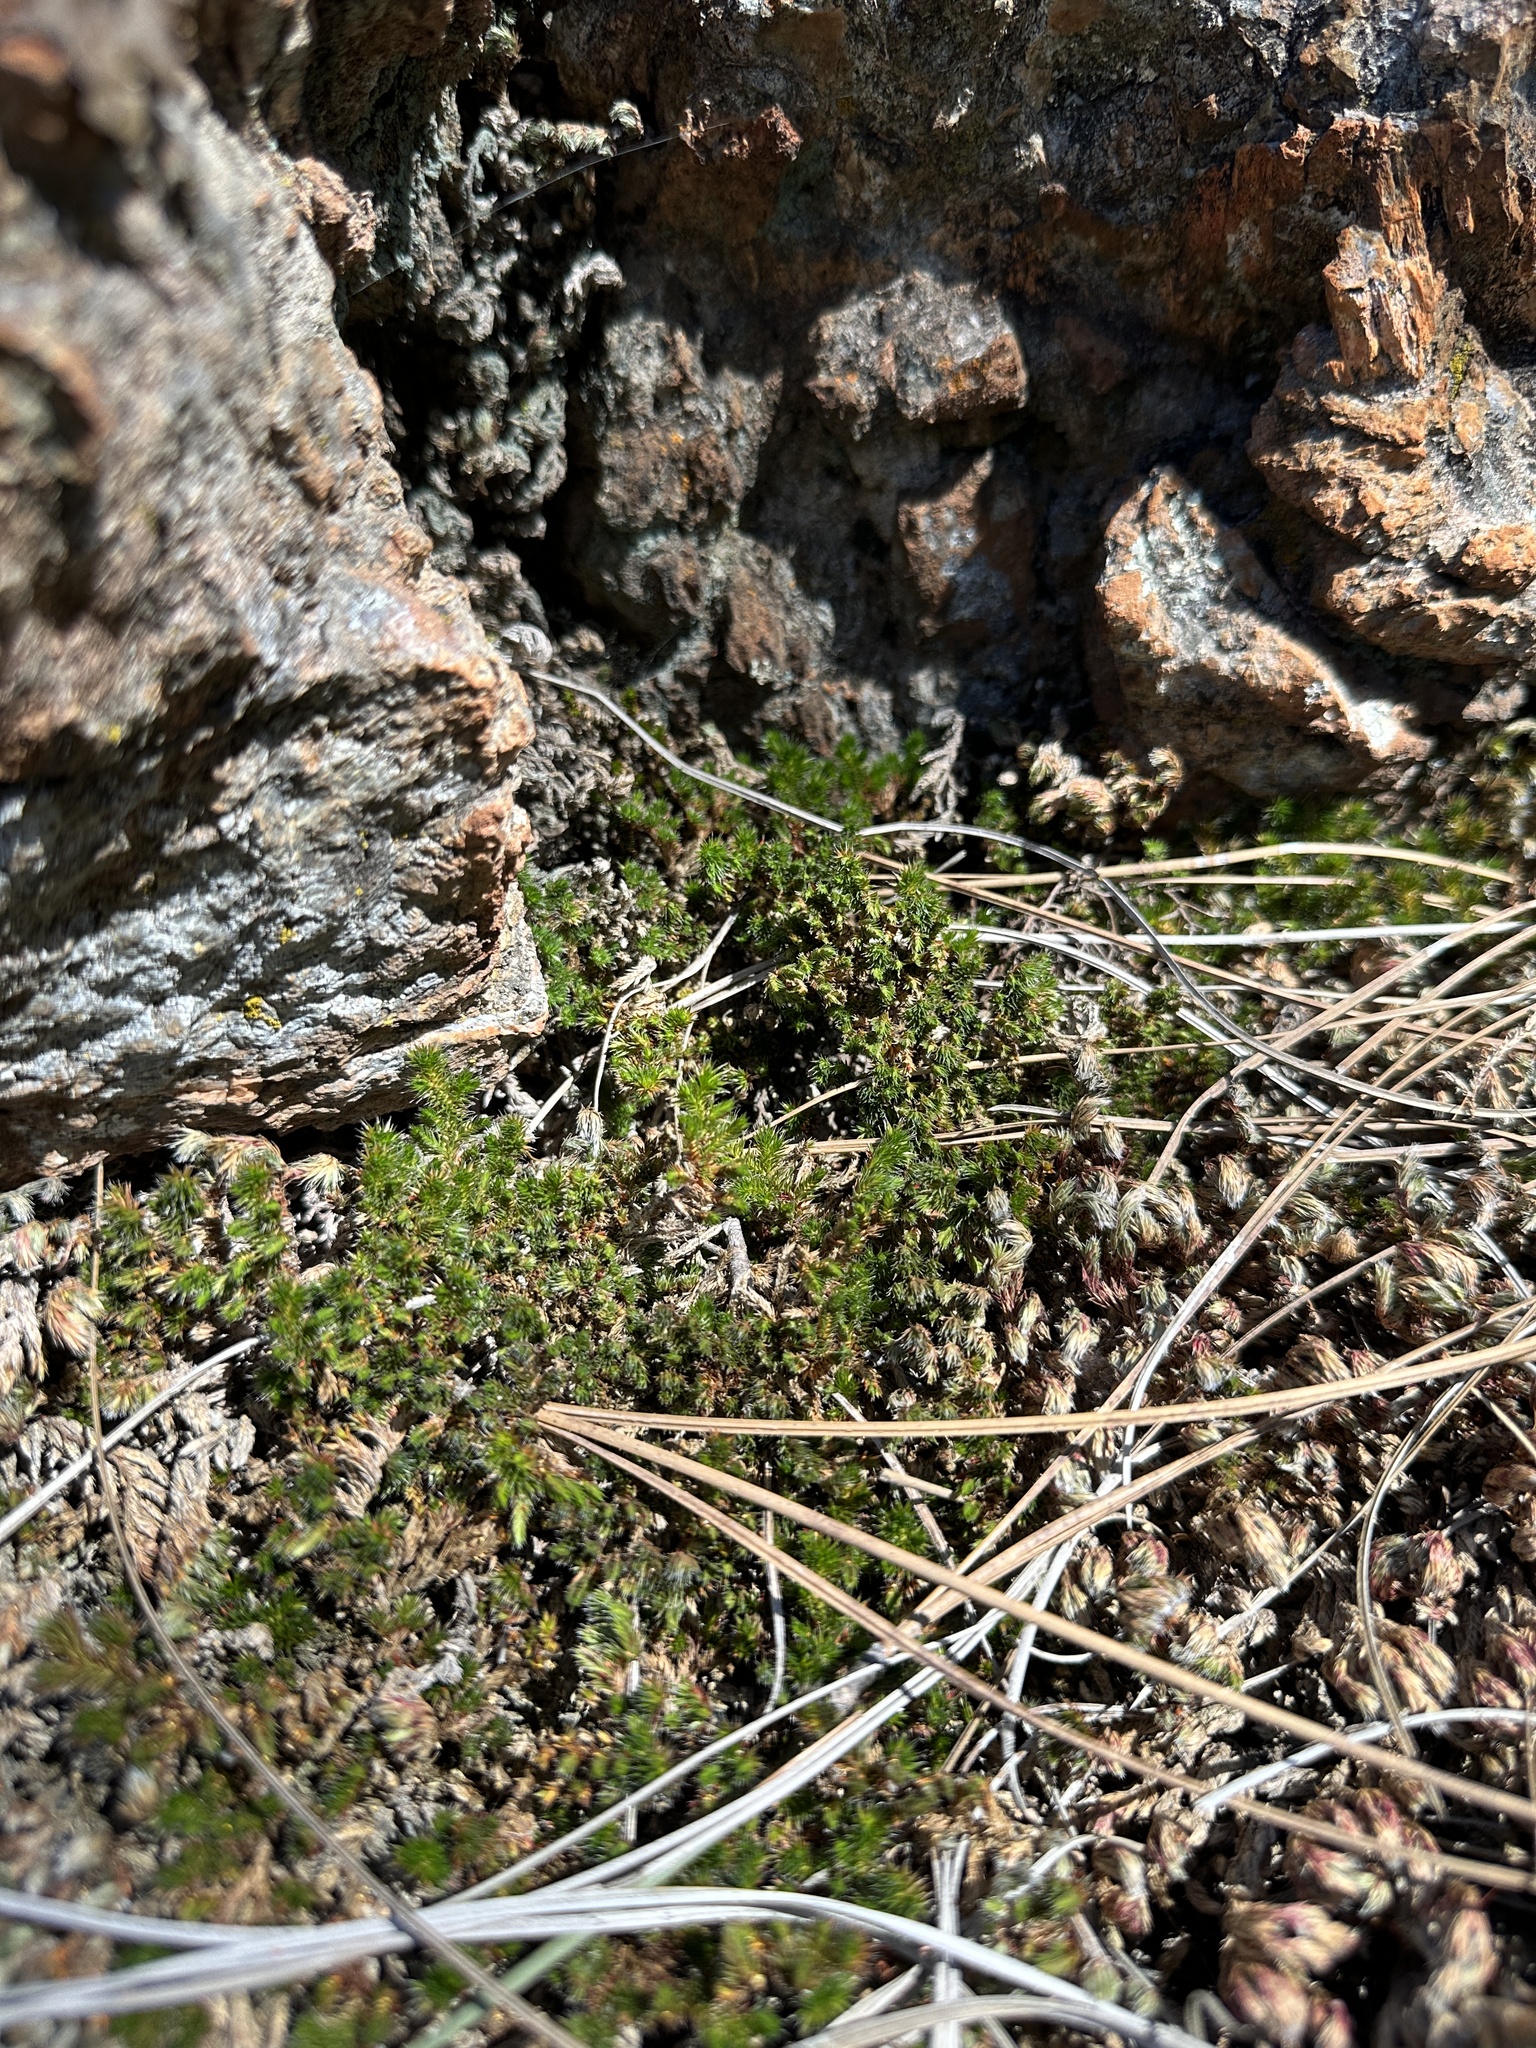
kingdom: Plantae
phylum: Tracheophyta
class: Lycopodiopsida
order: Selaginellales
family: Selaginellaceae
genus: Selaginella
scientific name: Selaginella hansenii
